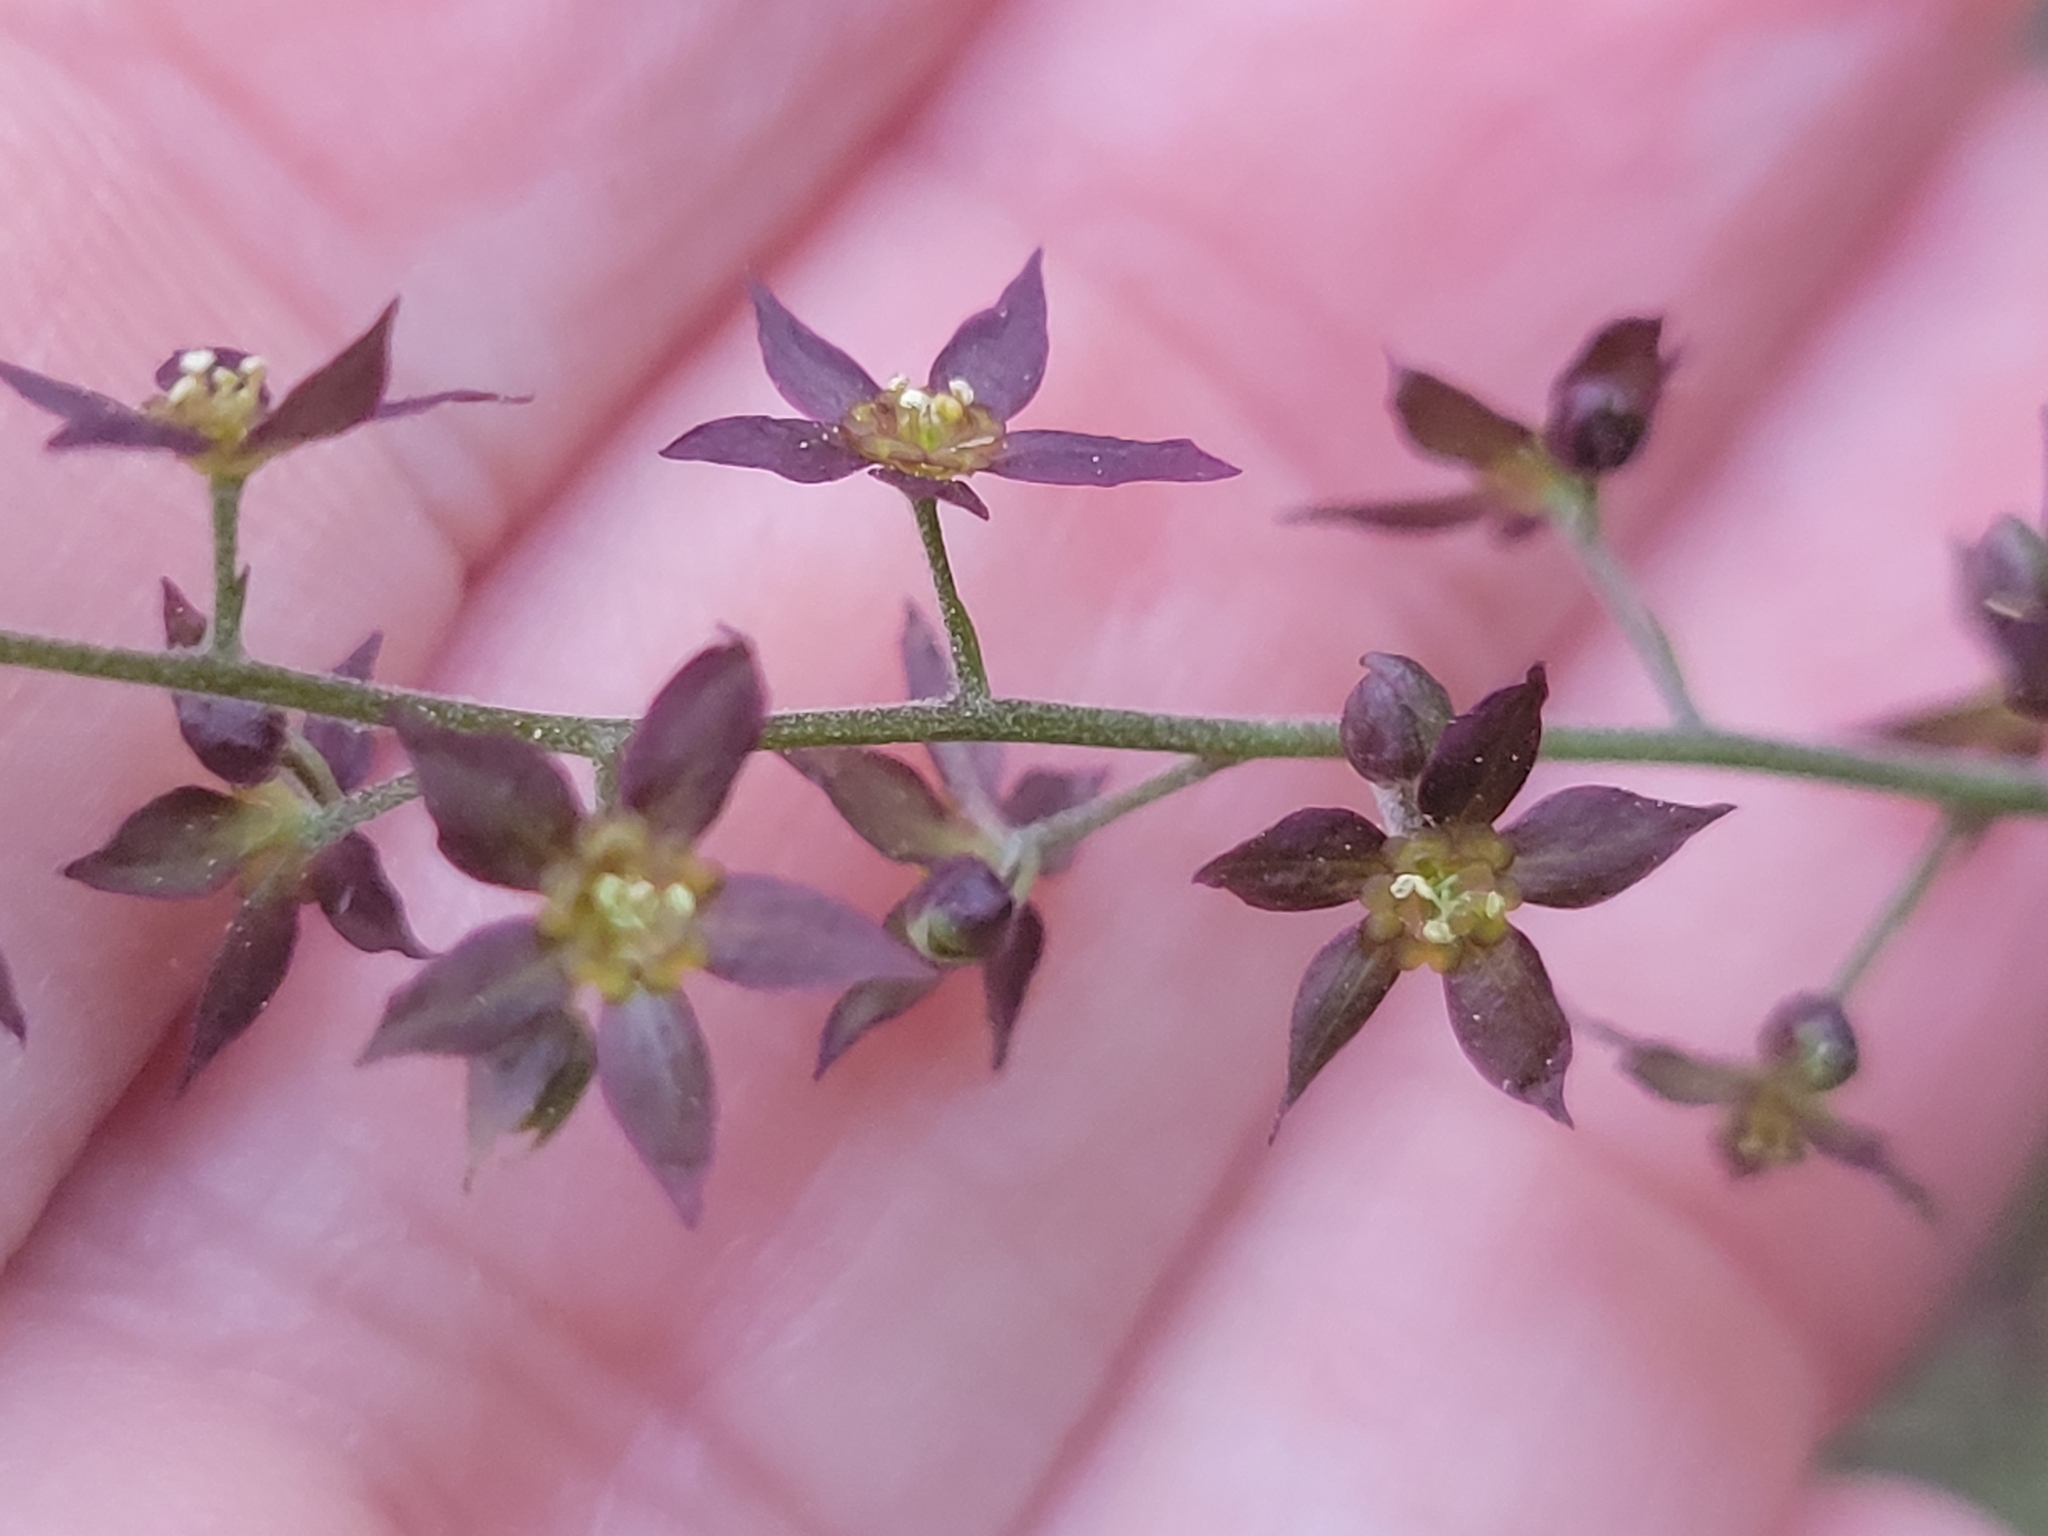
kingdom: Plantae
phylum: Tracheophyta
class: Magnoliopsida
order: Ranunculales
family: Ranunculaceae
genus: Xanthorhiza
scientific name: Xanthorhiza simplicissima
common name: Yellowroot
